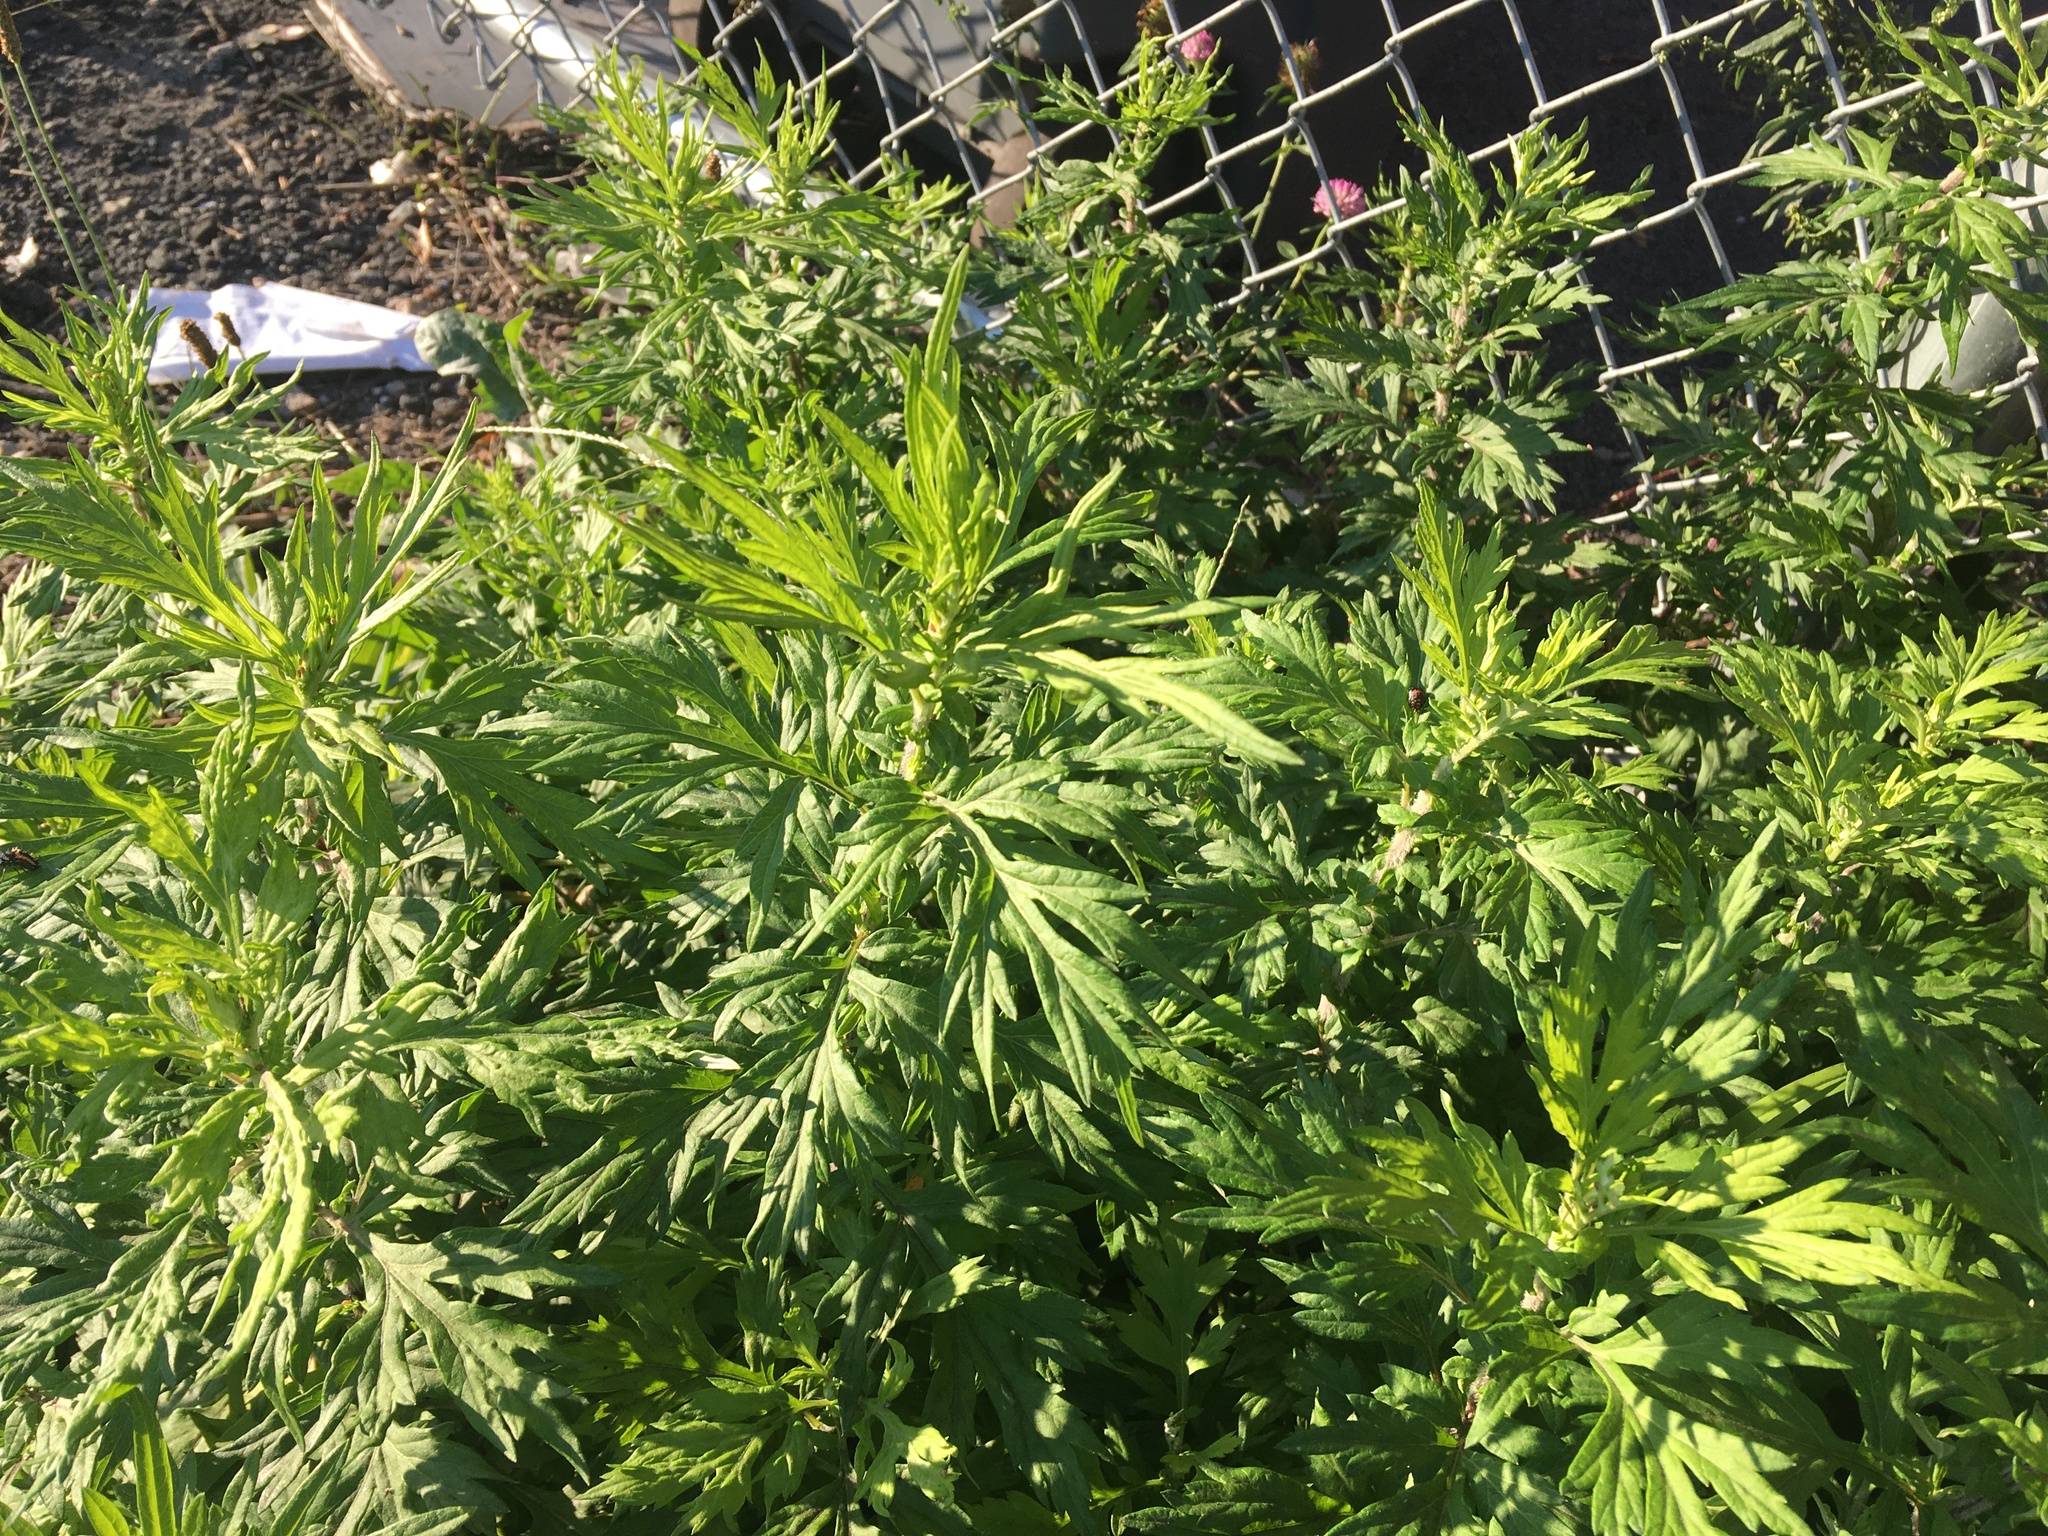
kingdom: Plantae
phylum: Tracheophyta
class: Magnoliopsida
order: Asterales
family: Asteraceae
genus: Artemisia
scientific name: Artemisia vulgaris
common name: Mugwort
